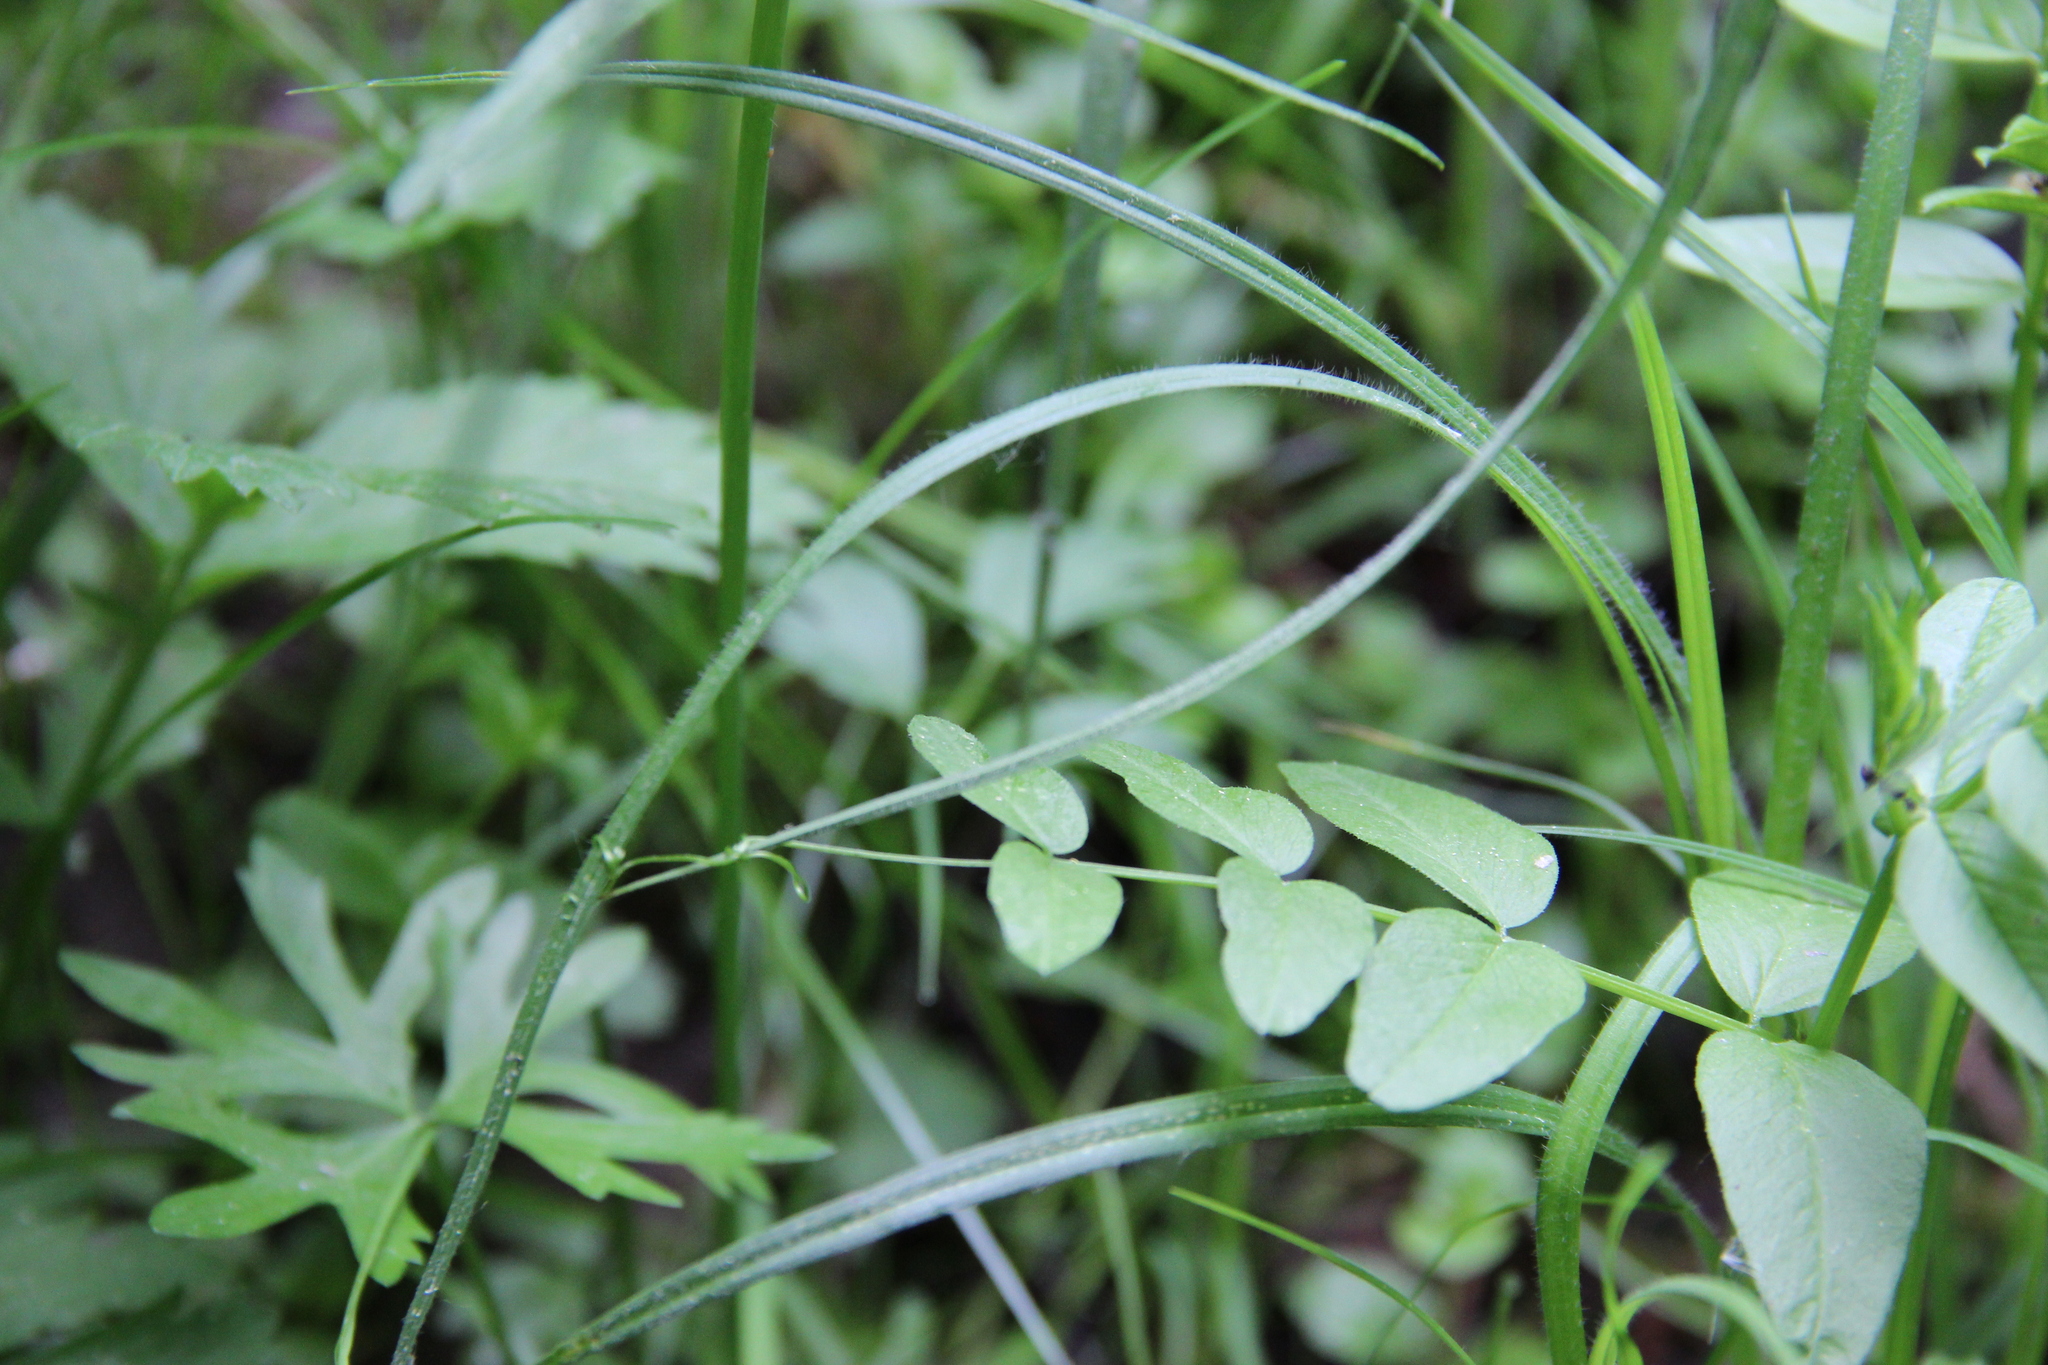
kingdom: Plantae
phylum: Tracheophyta
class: Magnoliopsida
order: Fabales
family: Fabaceae
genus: Vicia
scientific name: Vicia sepium
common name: Bush vetch
